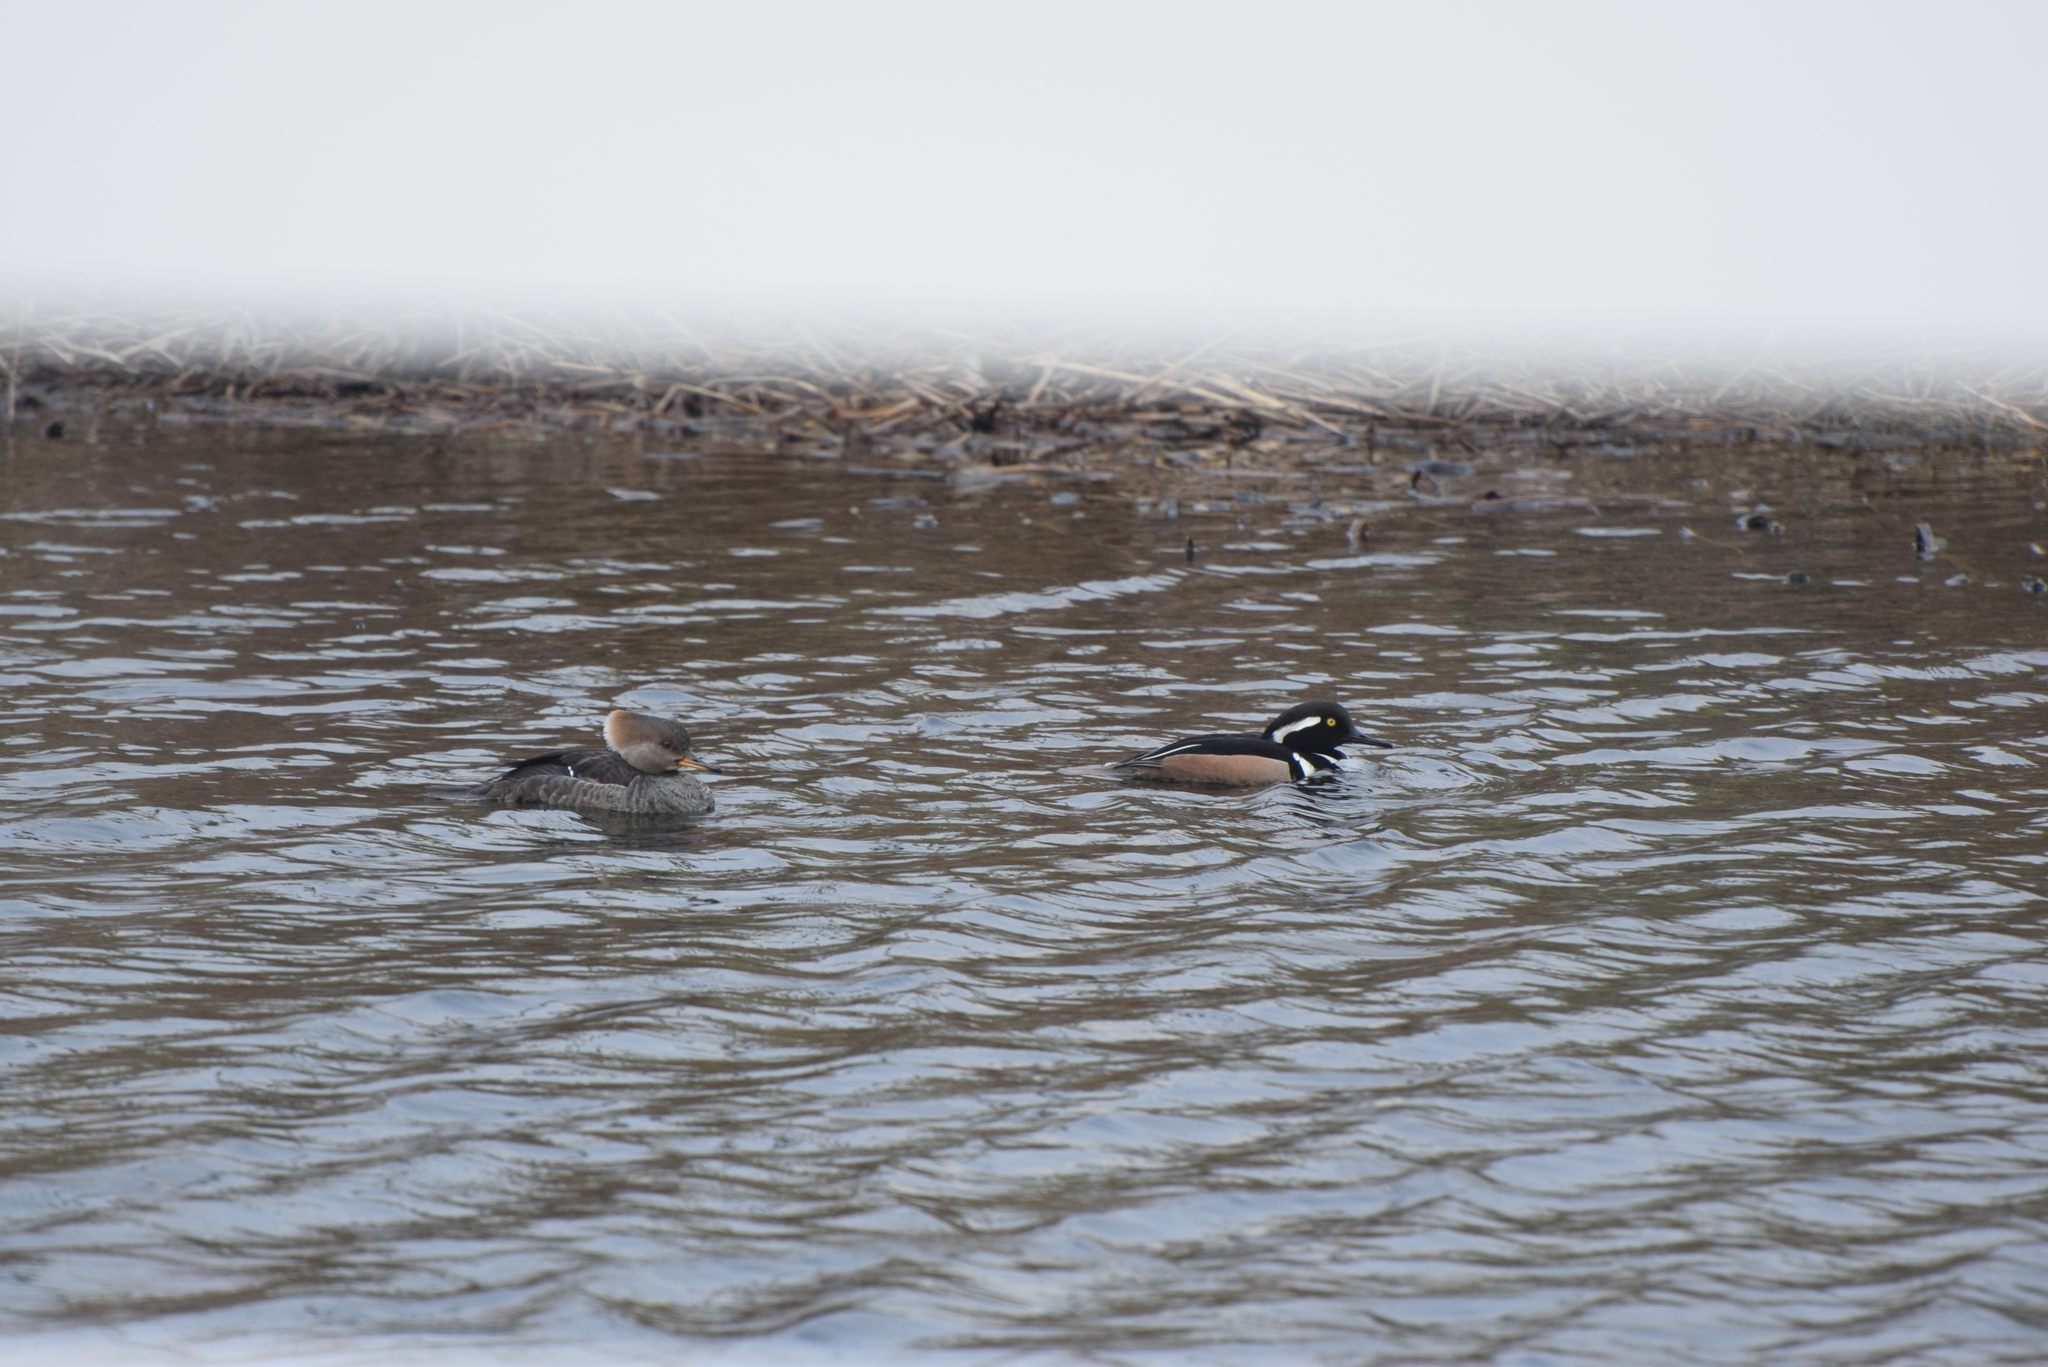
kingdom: Animalia
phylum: Chordata
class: Aves
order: Anseriformes
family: Anatidae
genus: Lophodytes
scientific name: Lophodytes cucullatus
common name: Hooded merganser
